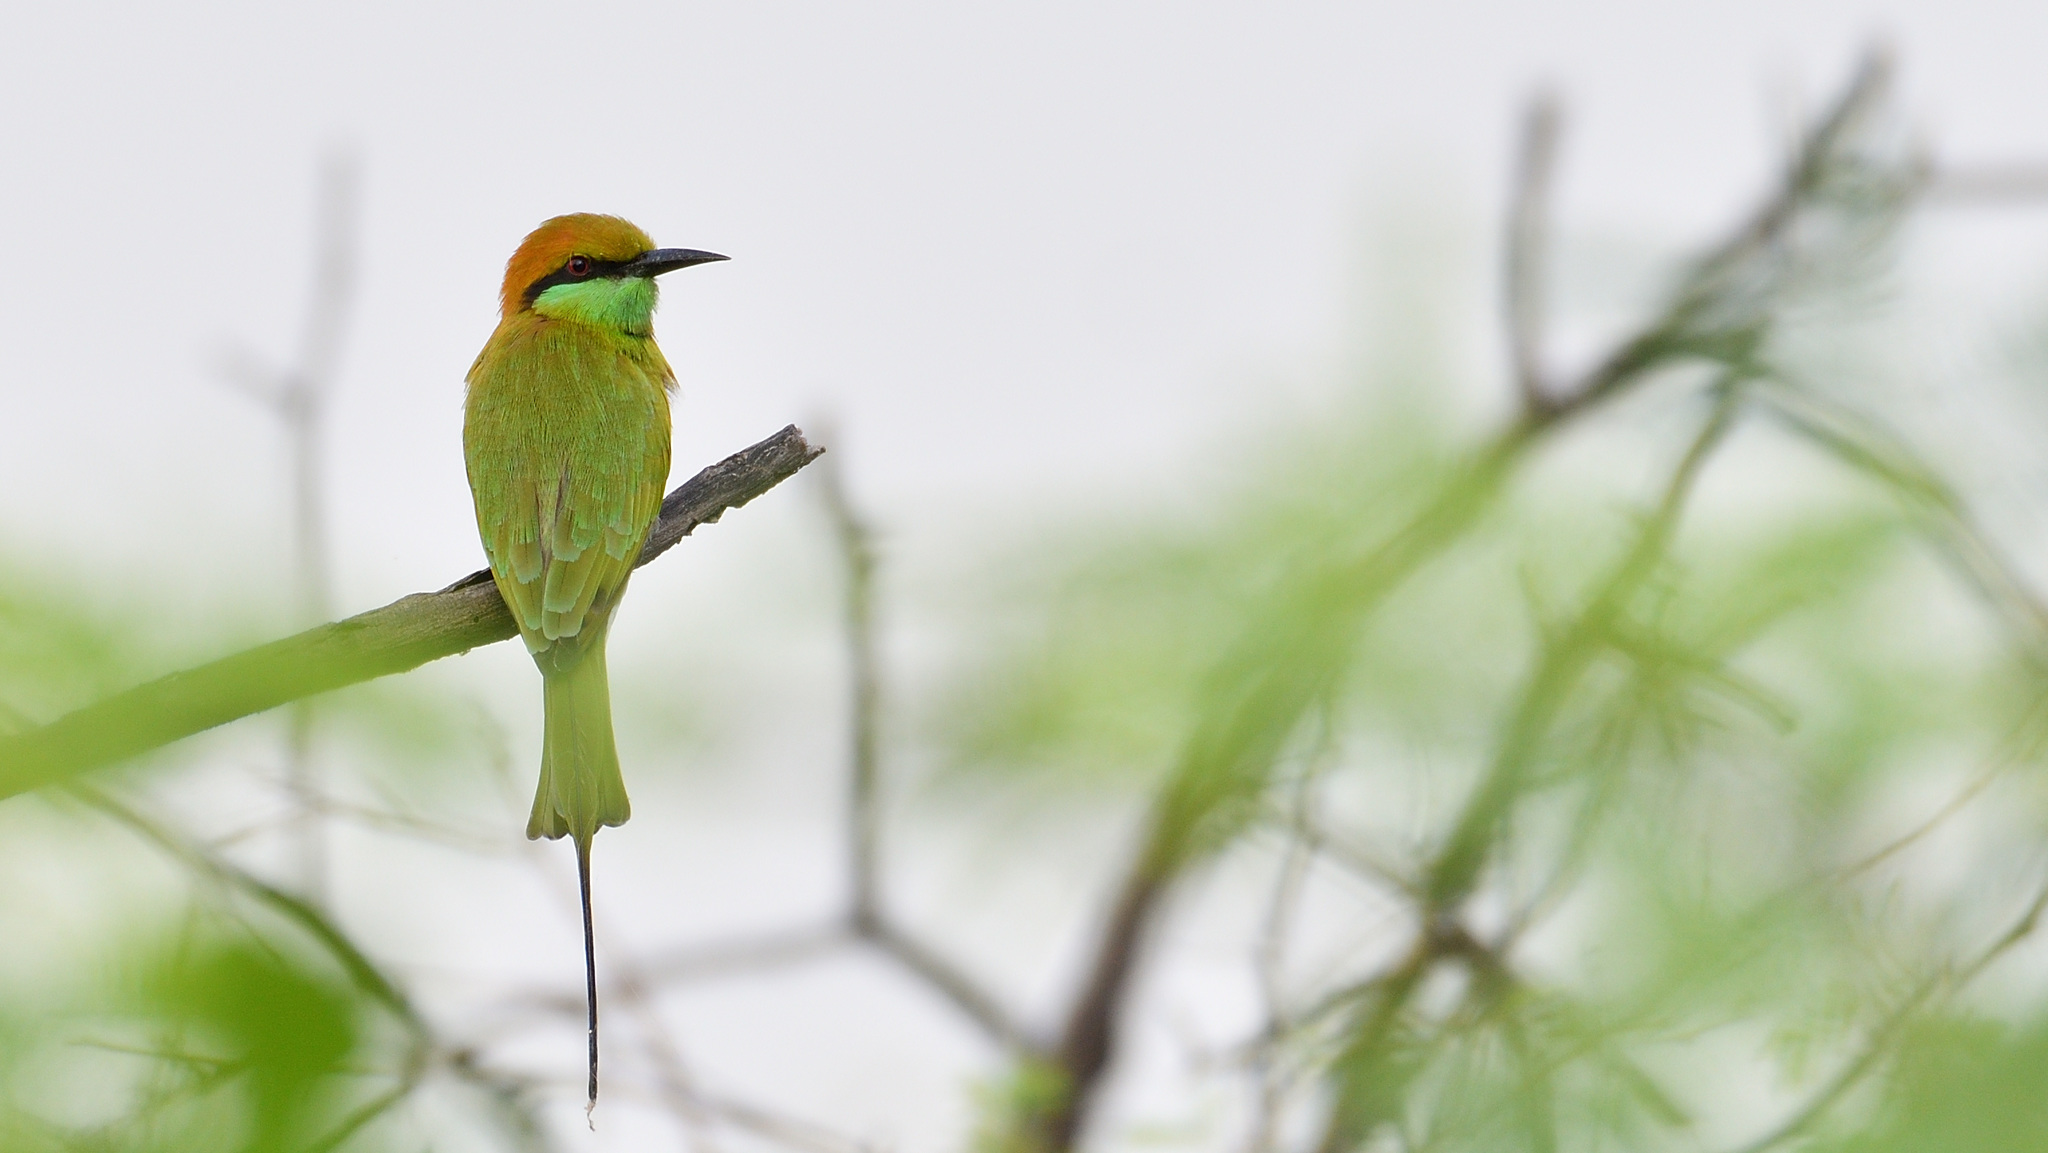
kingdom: Animalia
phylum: Chordata
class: Aves
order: Coraciiformes
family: Meropidae
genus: Merops
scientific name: Merops orientalis
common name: Green bee-eater
